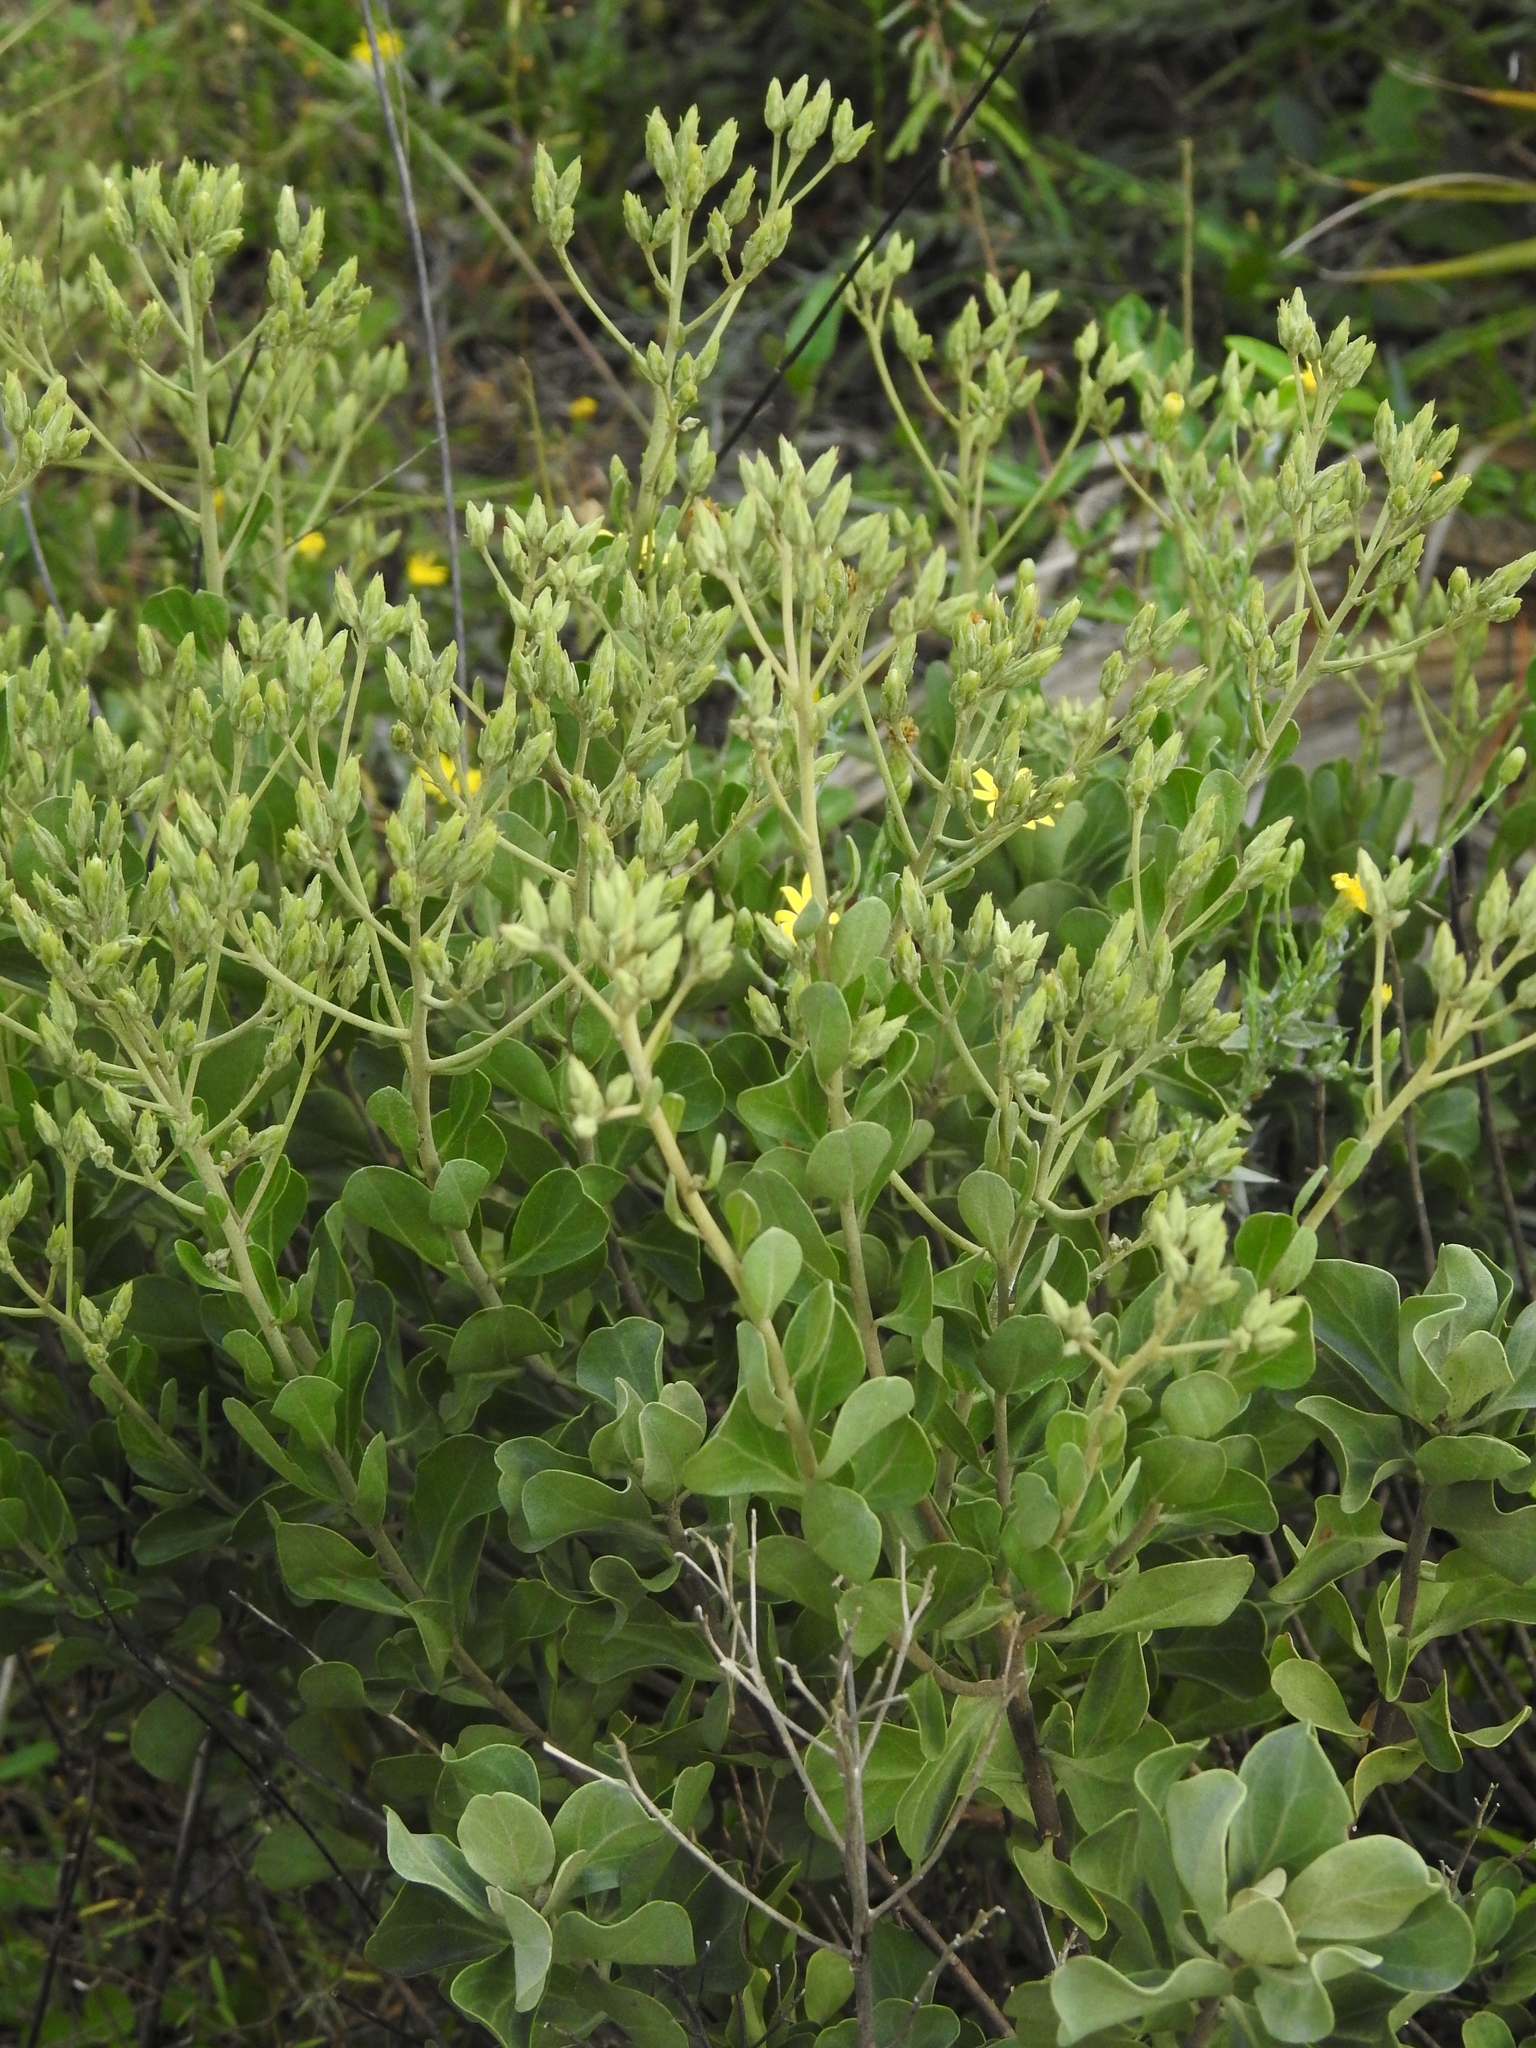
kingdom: Plantae
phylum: Tracheophyta
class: Magnoliopsida
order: Asterales
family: Asteraceae
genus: Garberia
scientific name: Garberia heterophylla
